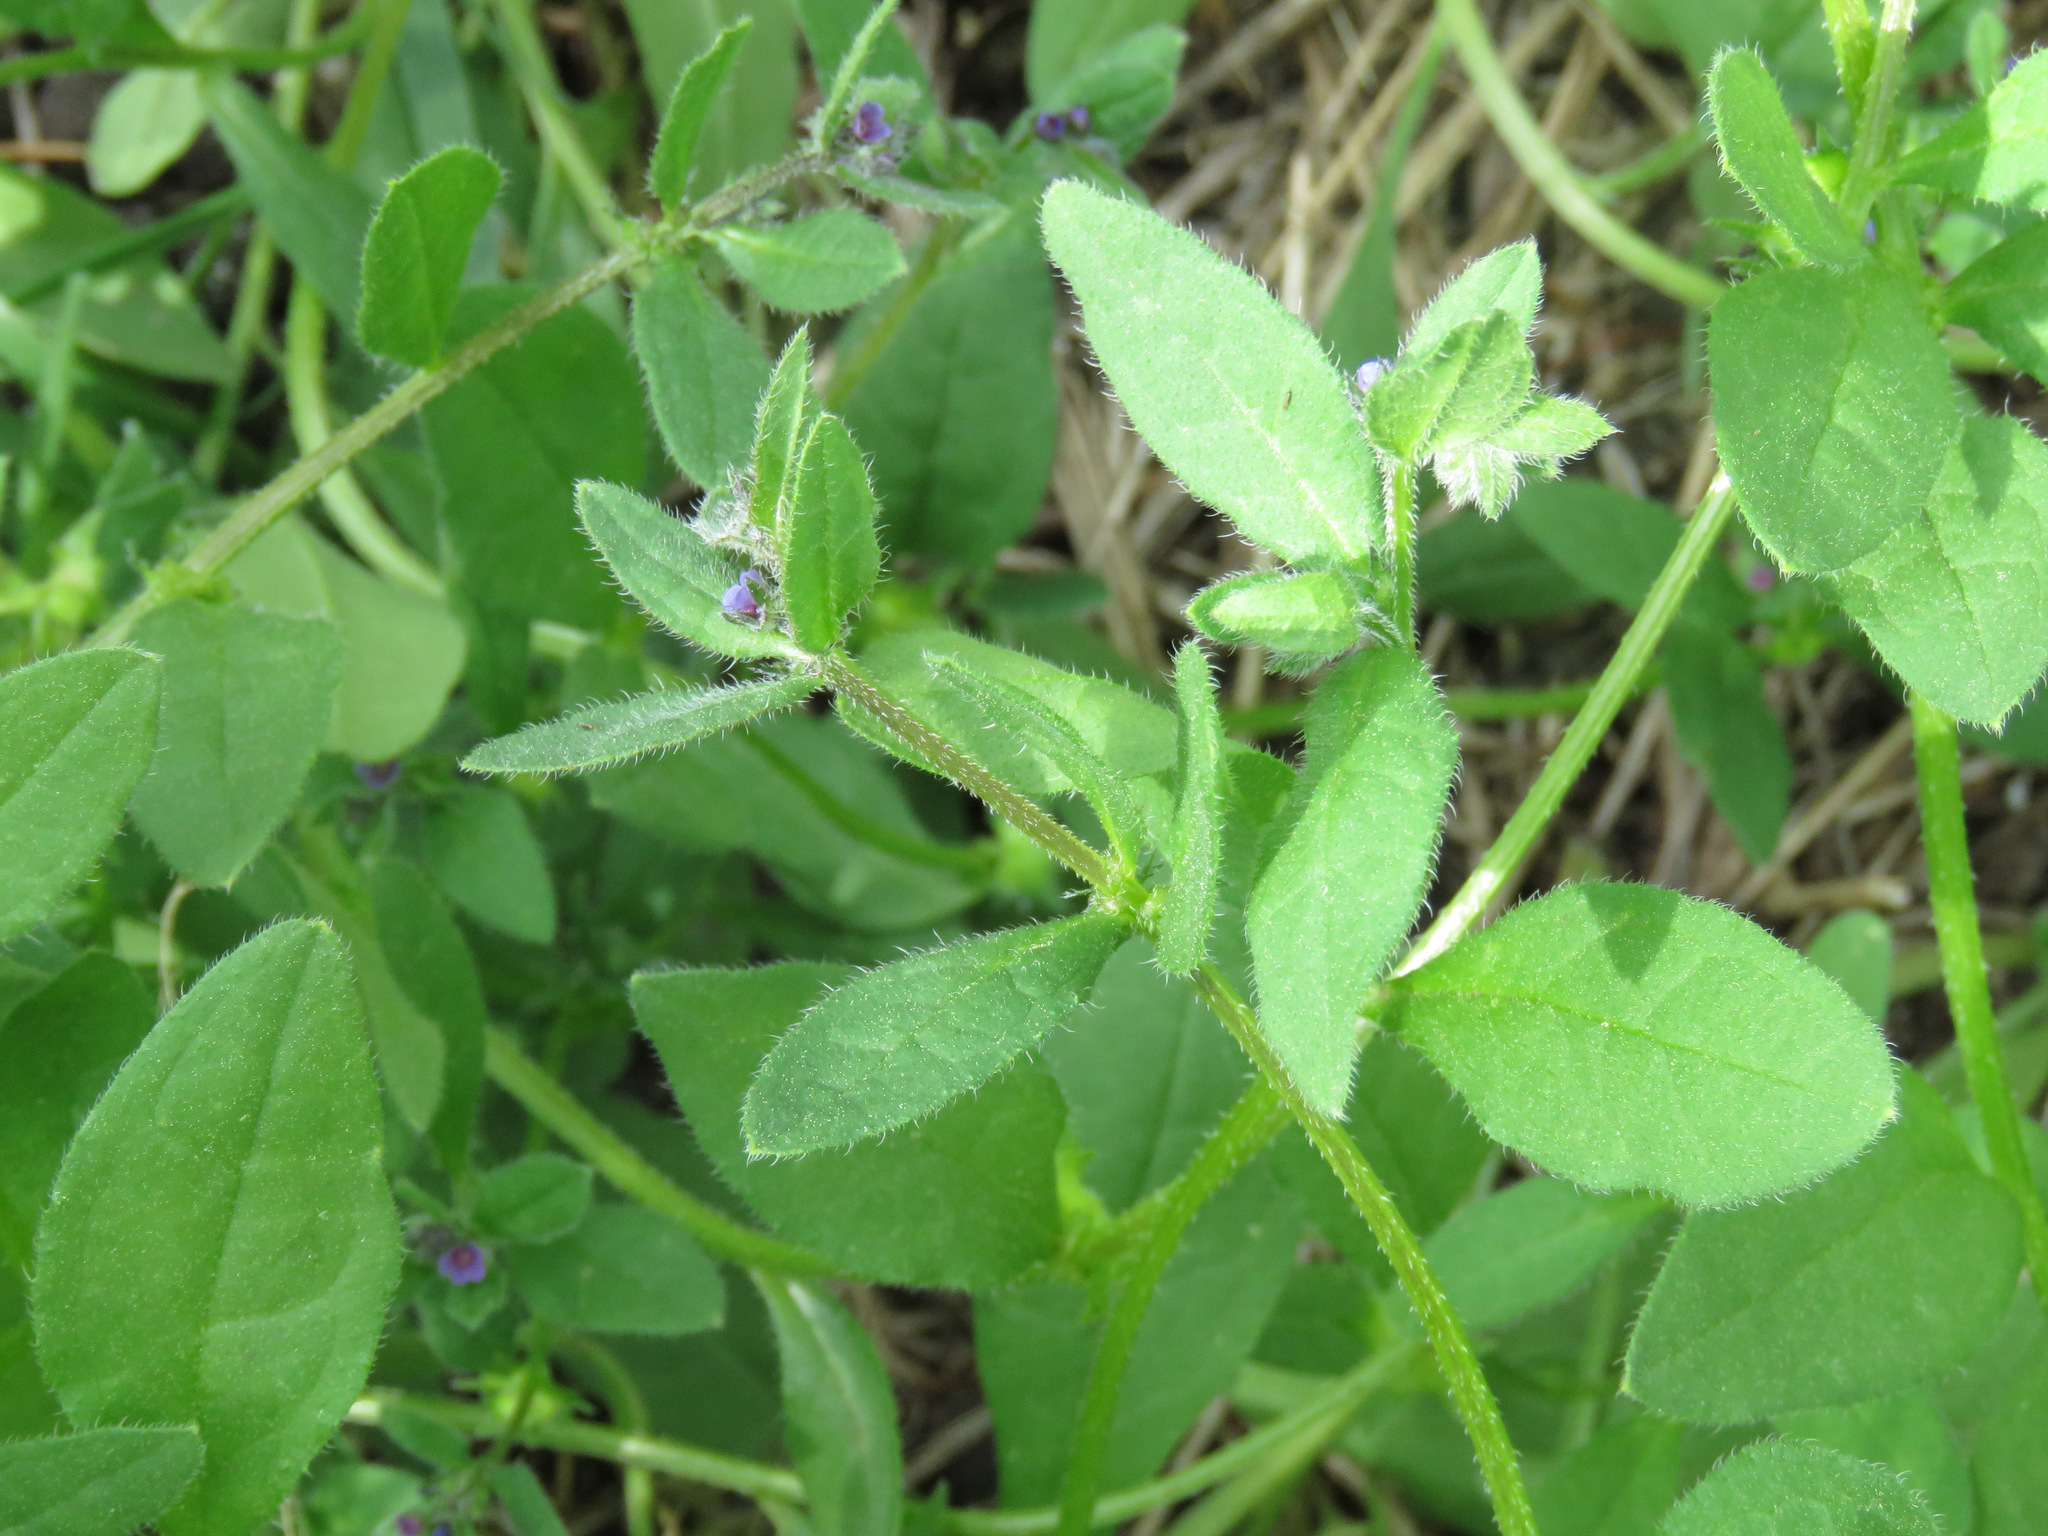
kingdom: Plantae
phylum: Tracheophyta
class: Magnoliopsida
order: Boraginales
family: Boraginaceae
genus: Asperugo
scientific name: Asperugo procumbens
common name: Madwort
